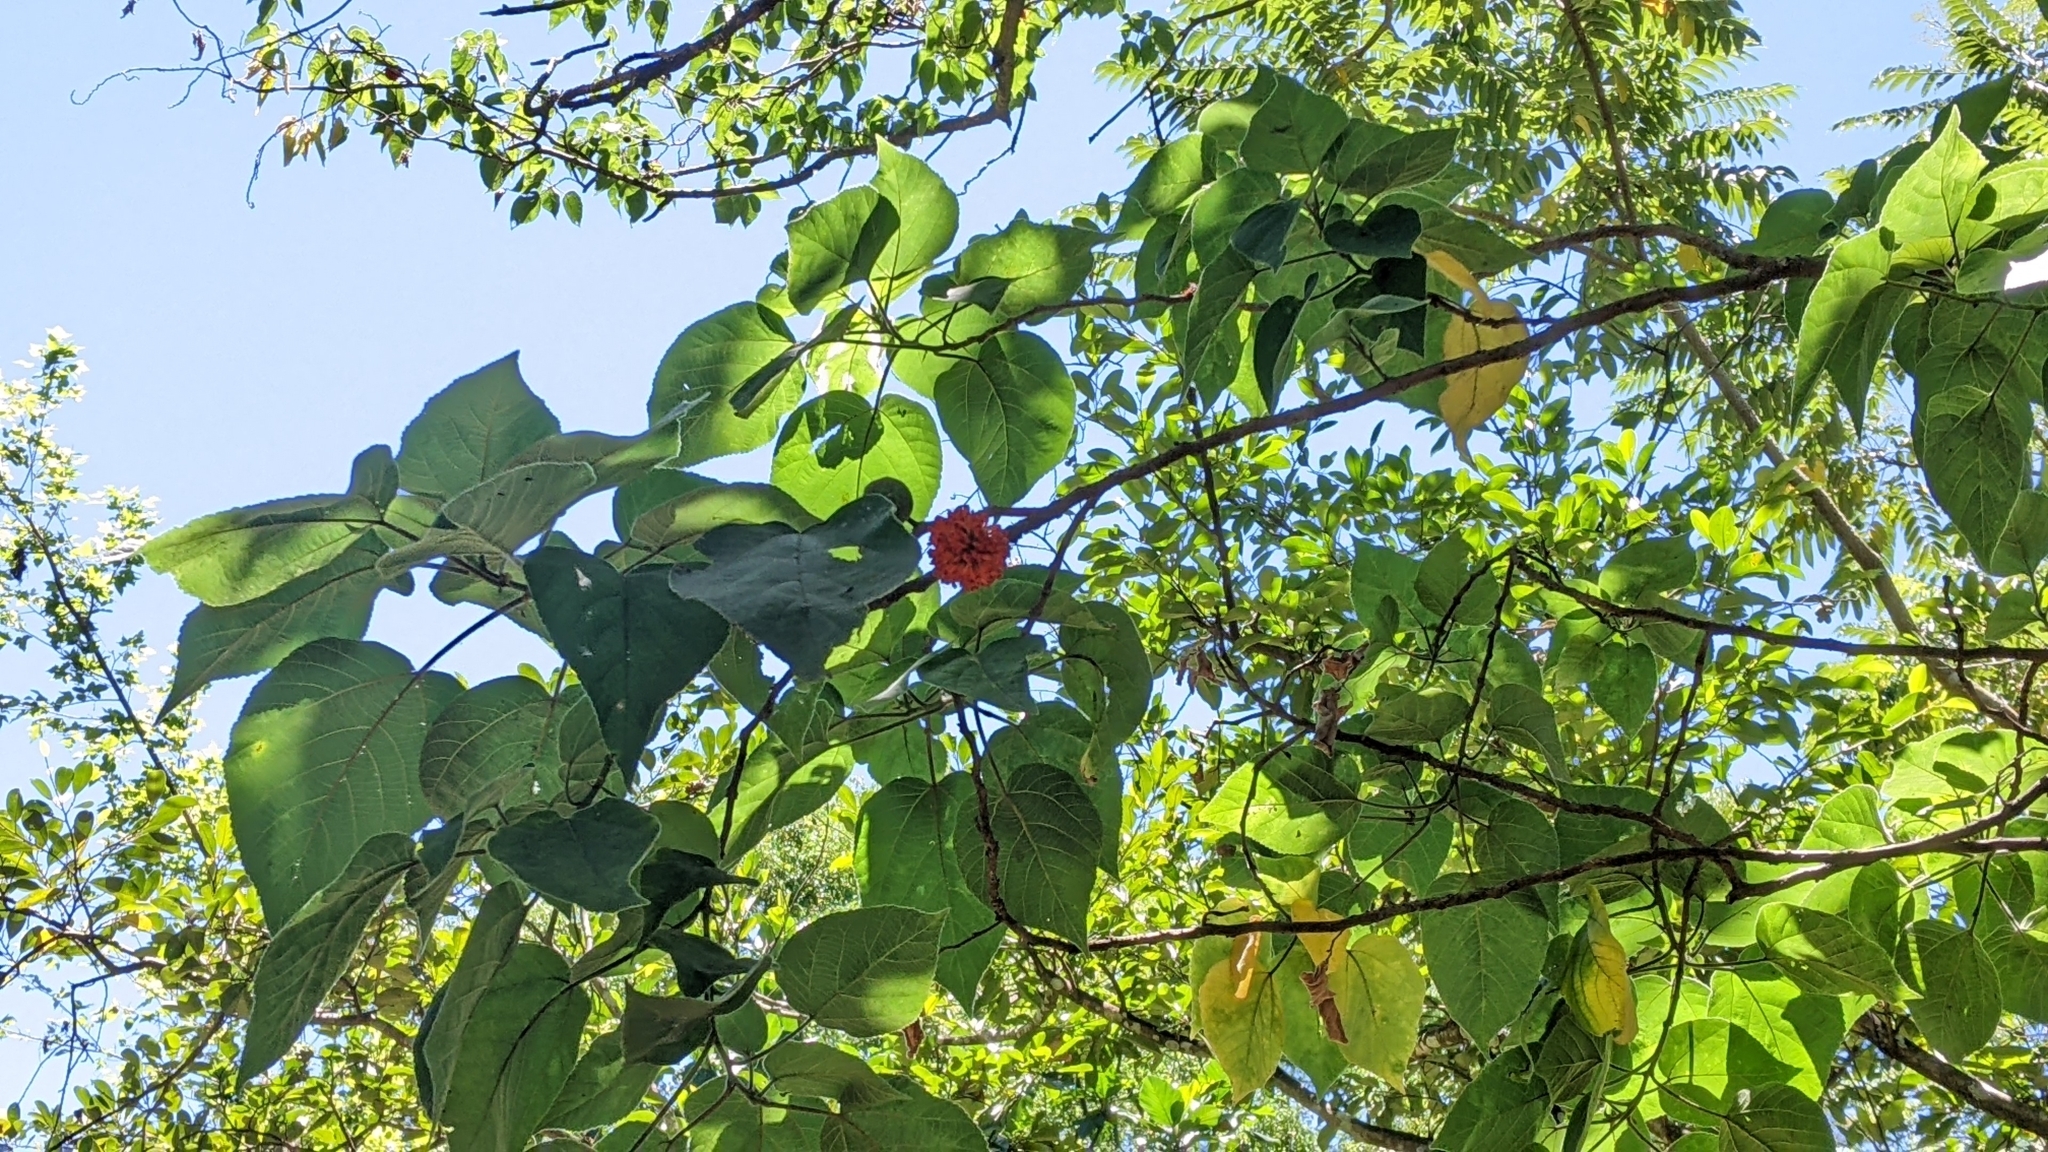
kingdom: Plantae
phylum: Tracheophyta
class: Magnoliopsida
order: Rosales
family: Moraceae
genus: Broussonetia
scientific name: Broussonetia papyrifera
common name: Paper mulberry
